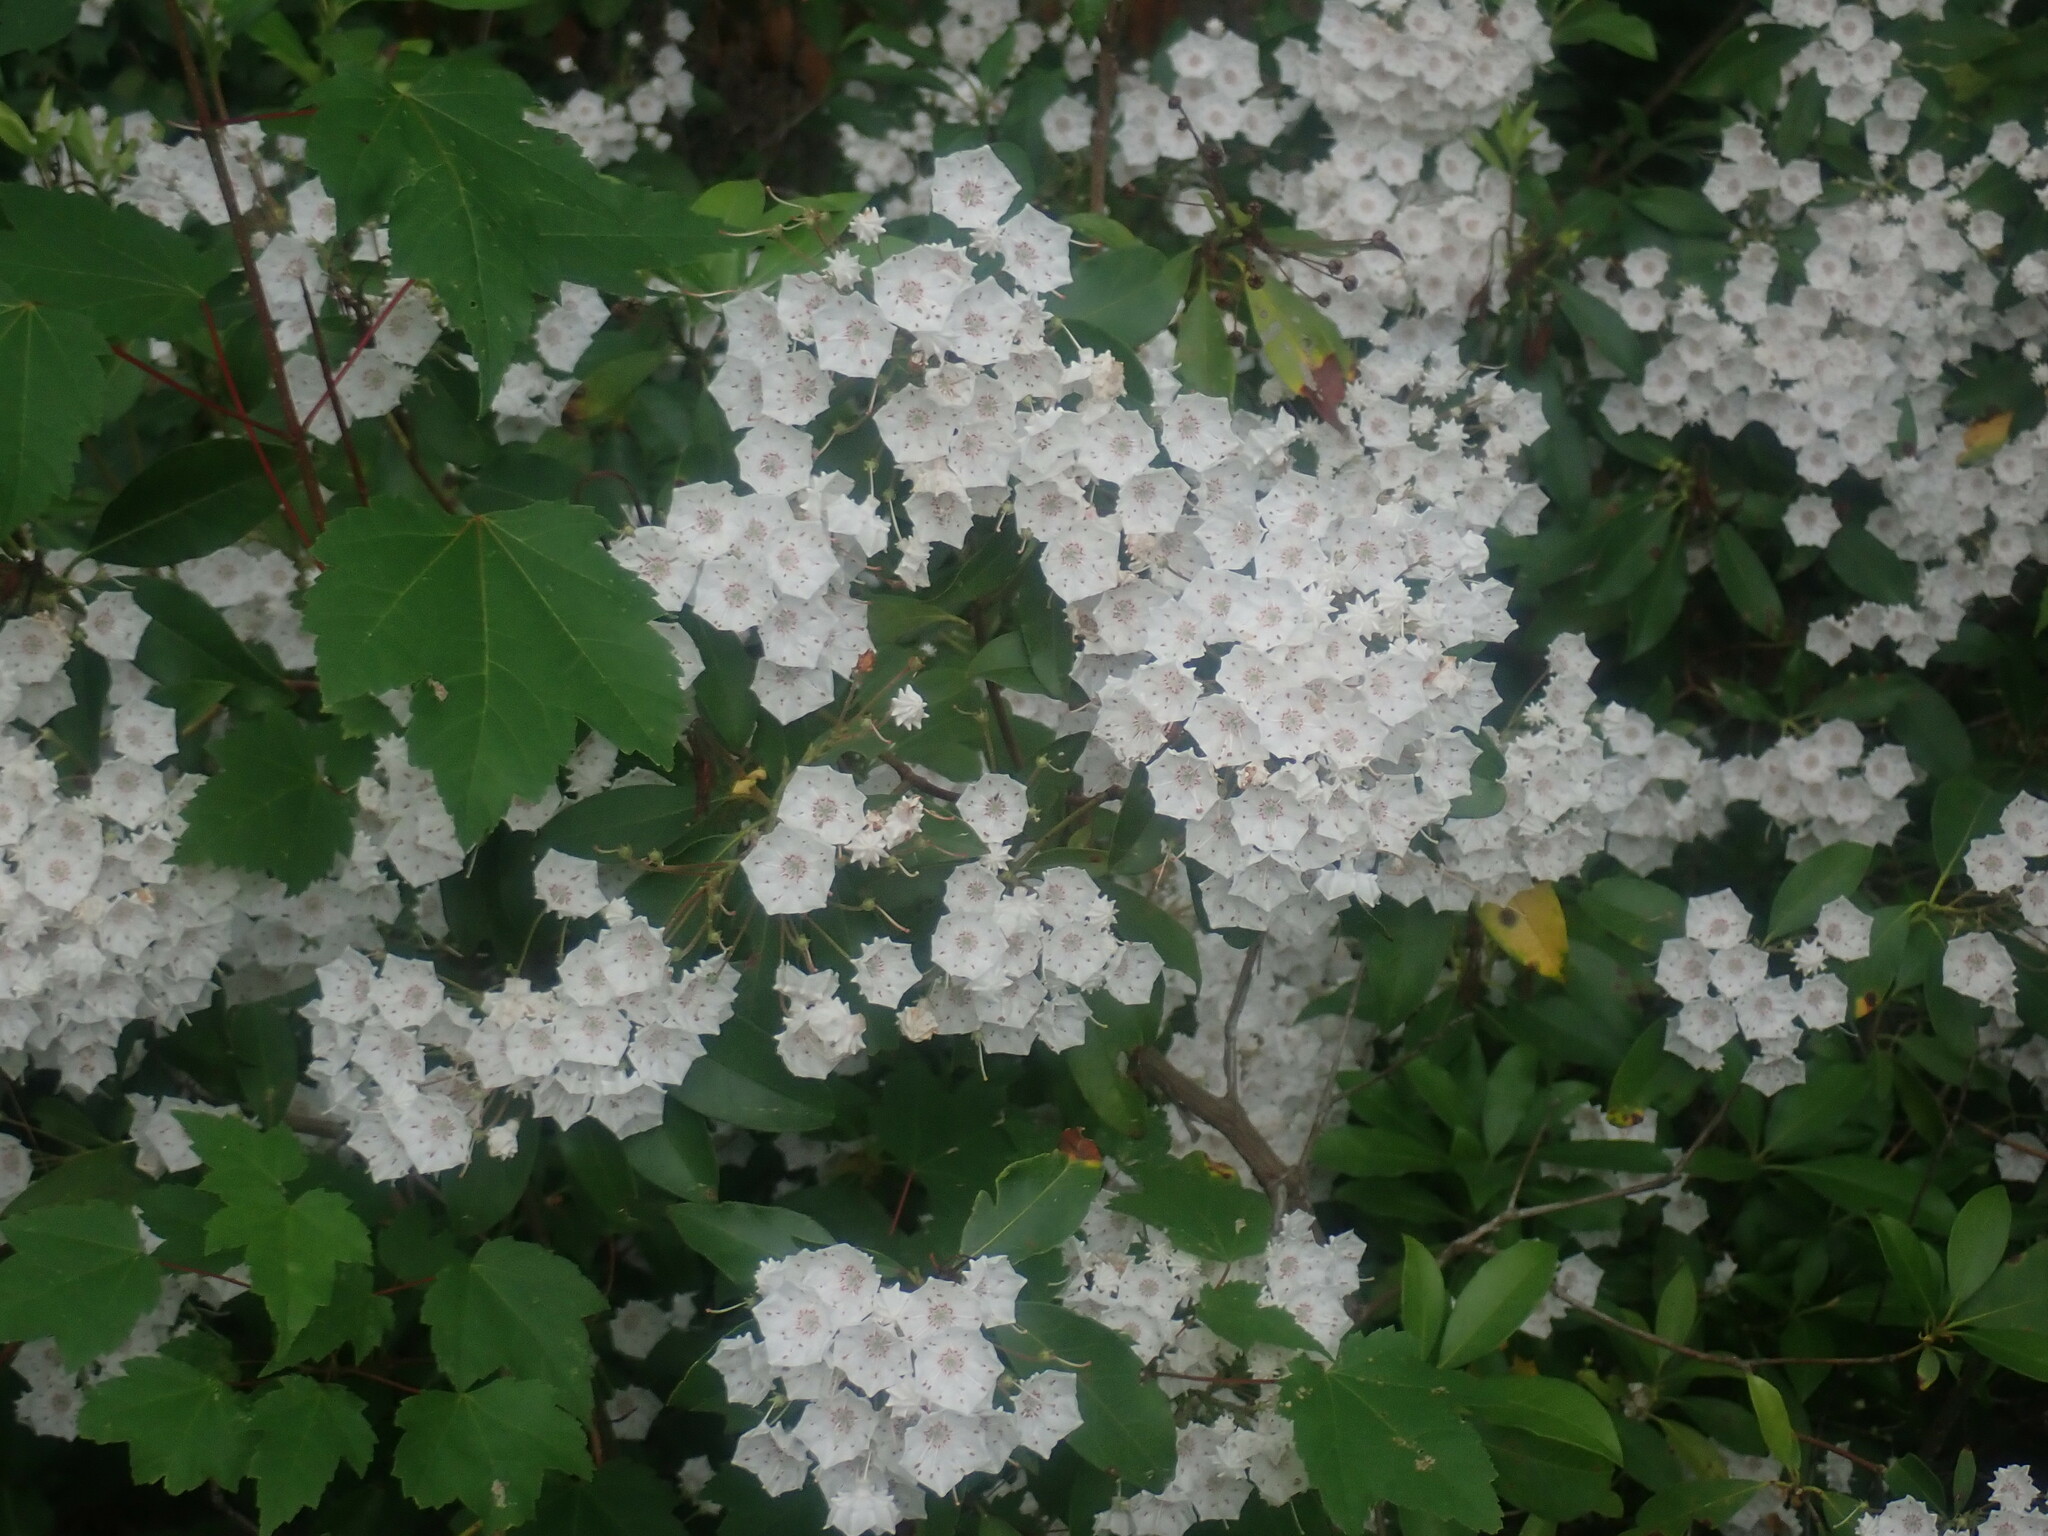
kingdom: Plantae
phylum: Tracheophyta
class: Magnoliopsida
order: Ericales
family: Ericaceae
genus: Kalmia
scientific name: Kalmia latifolia
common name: Mountain-laurel
